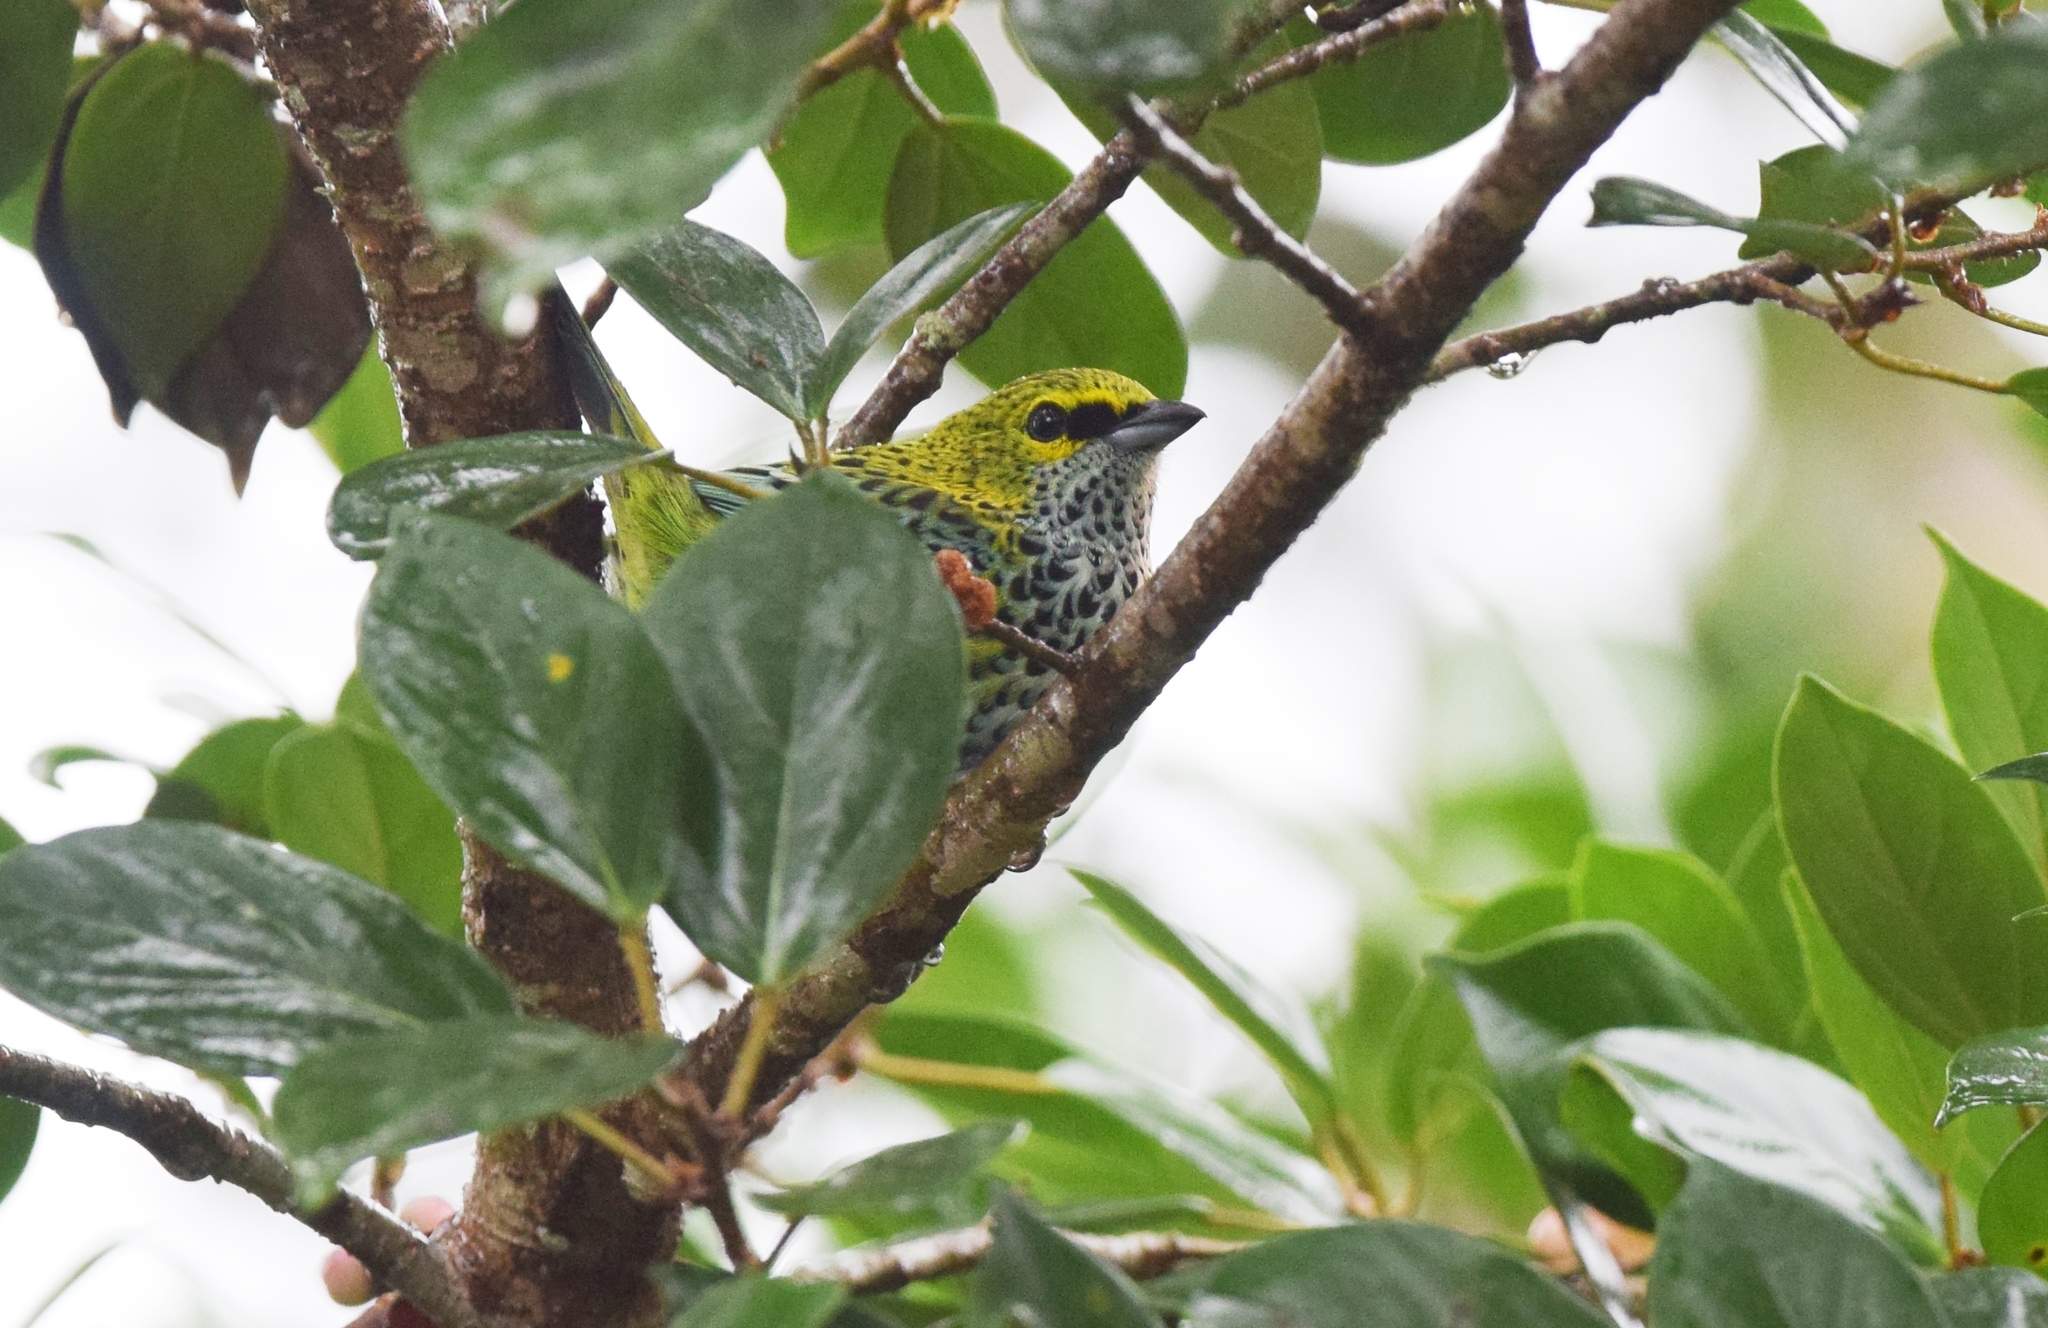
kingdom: Animalia
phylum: Chordata
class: Aves
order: Passeriformes
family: Thraupidae
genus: Ixothraupis
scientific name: Ixothraupis guttata
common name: Speckled tanager
